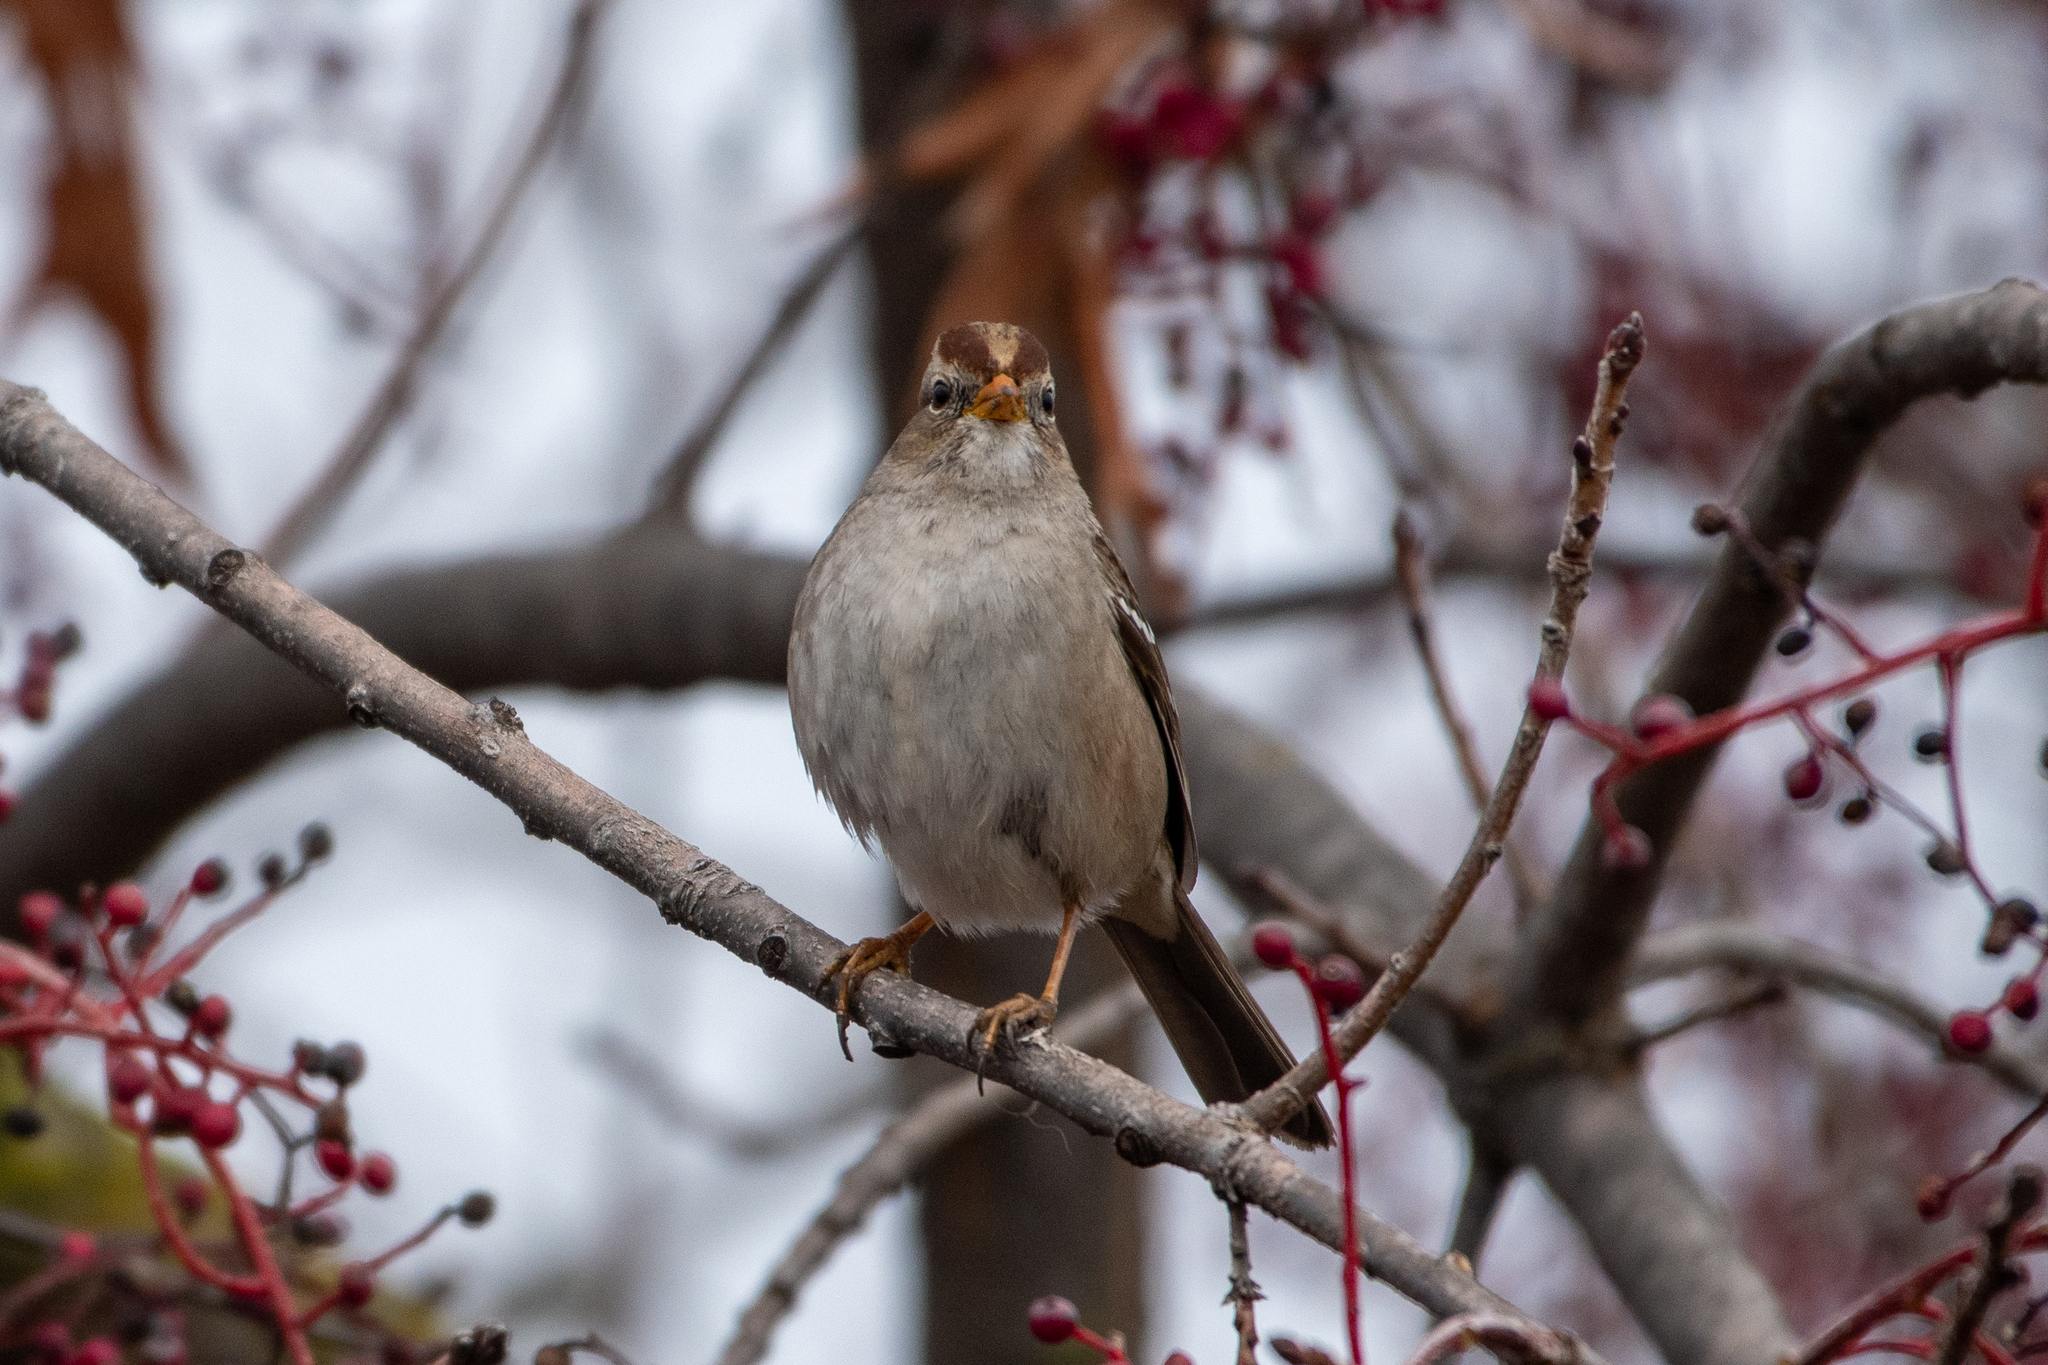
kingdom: Animalia
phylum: Chordata
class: Aves
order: Passeriformes
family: Passerellidae
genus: Zonotrichia
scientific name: Zonotrichia leucophrys
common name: White-crowned sparrow
